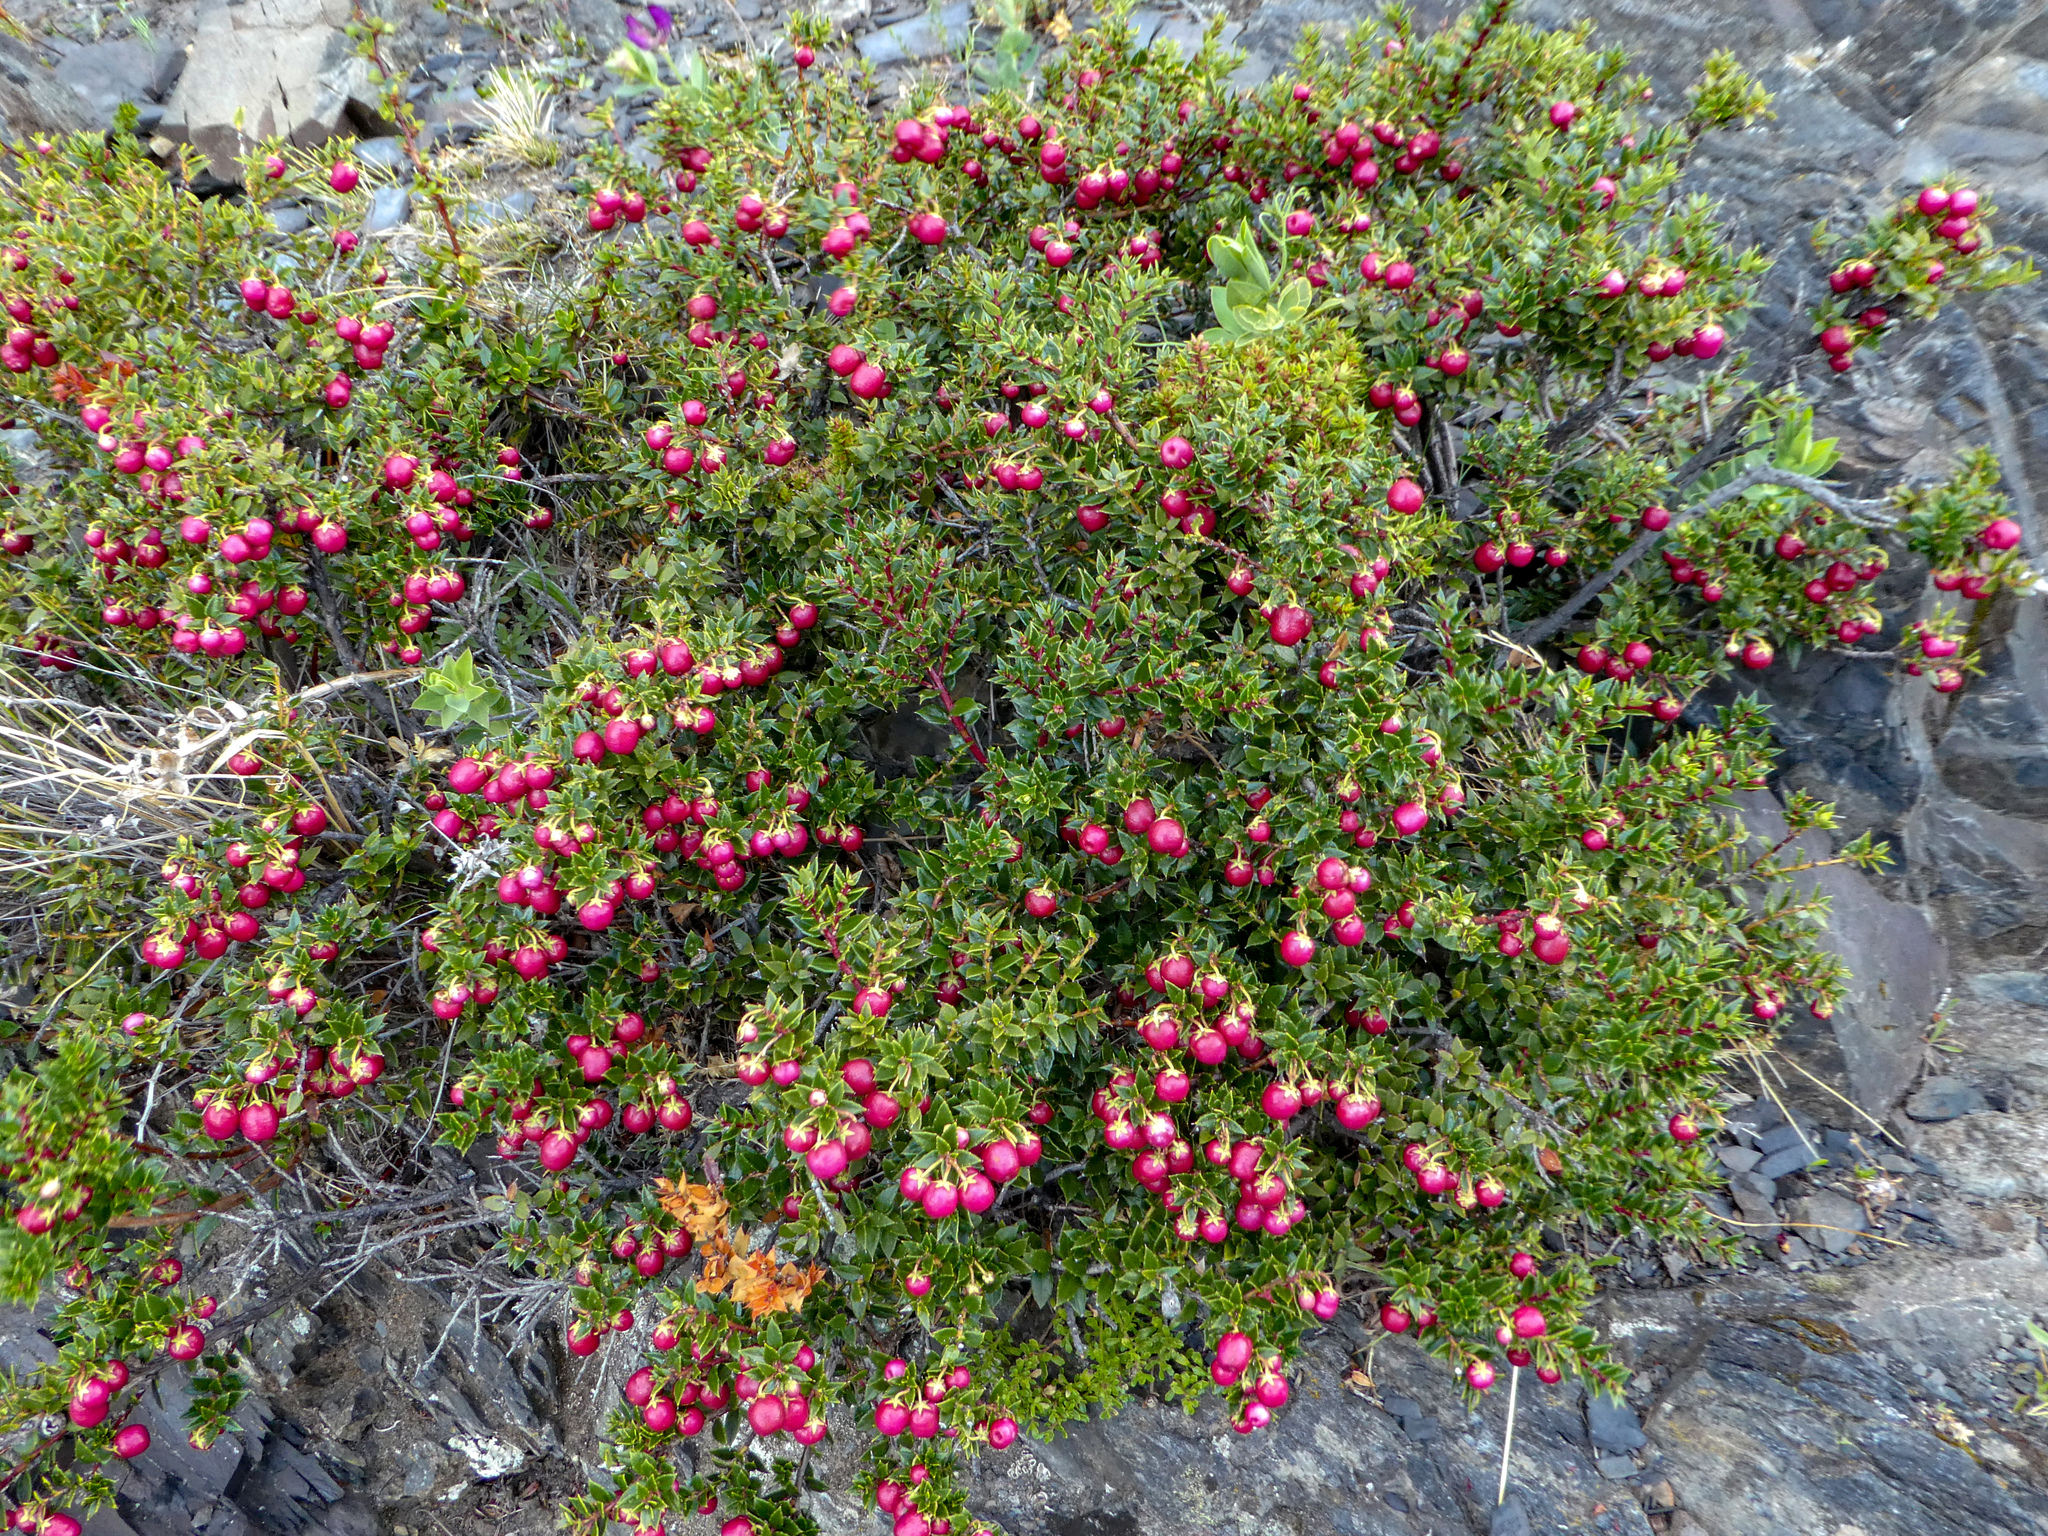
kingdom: Plantae
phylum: Tracheophyta
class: Magnoliopsida
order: Ericales
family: Ericaceae
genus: Gaultheria
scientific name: Gaultheria mucronata
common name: Prickly heath
